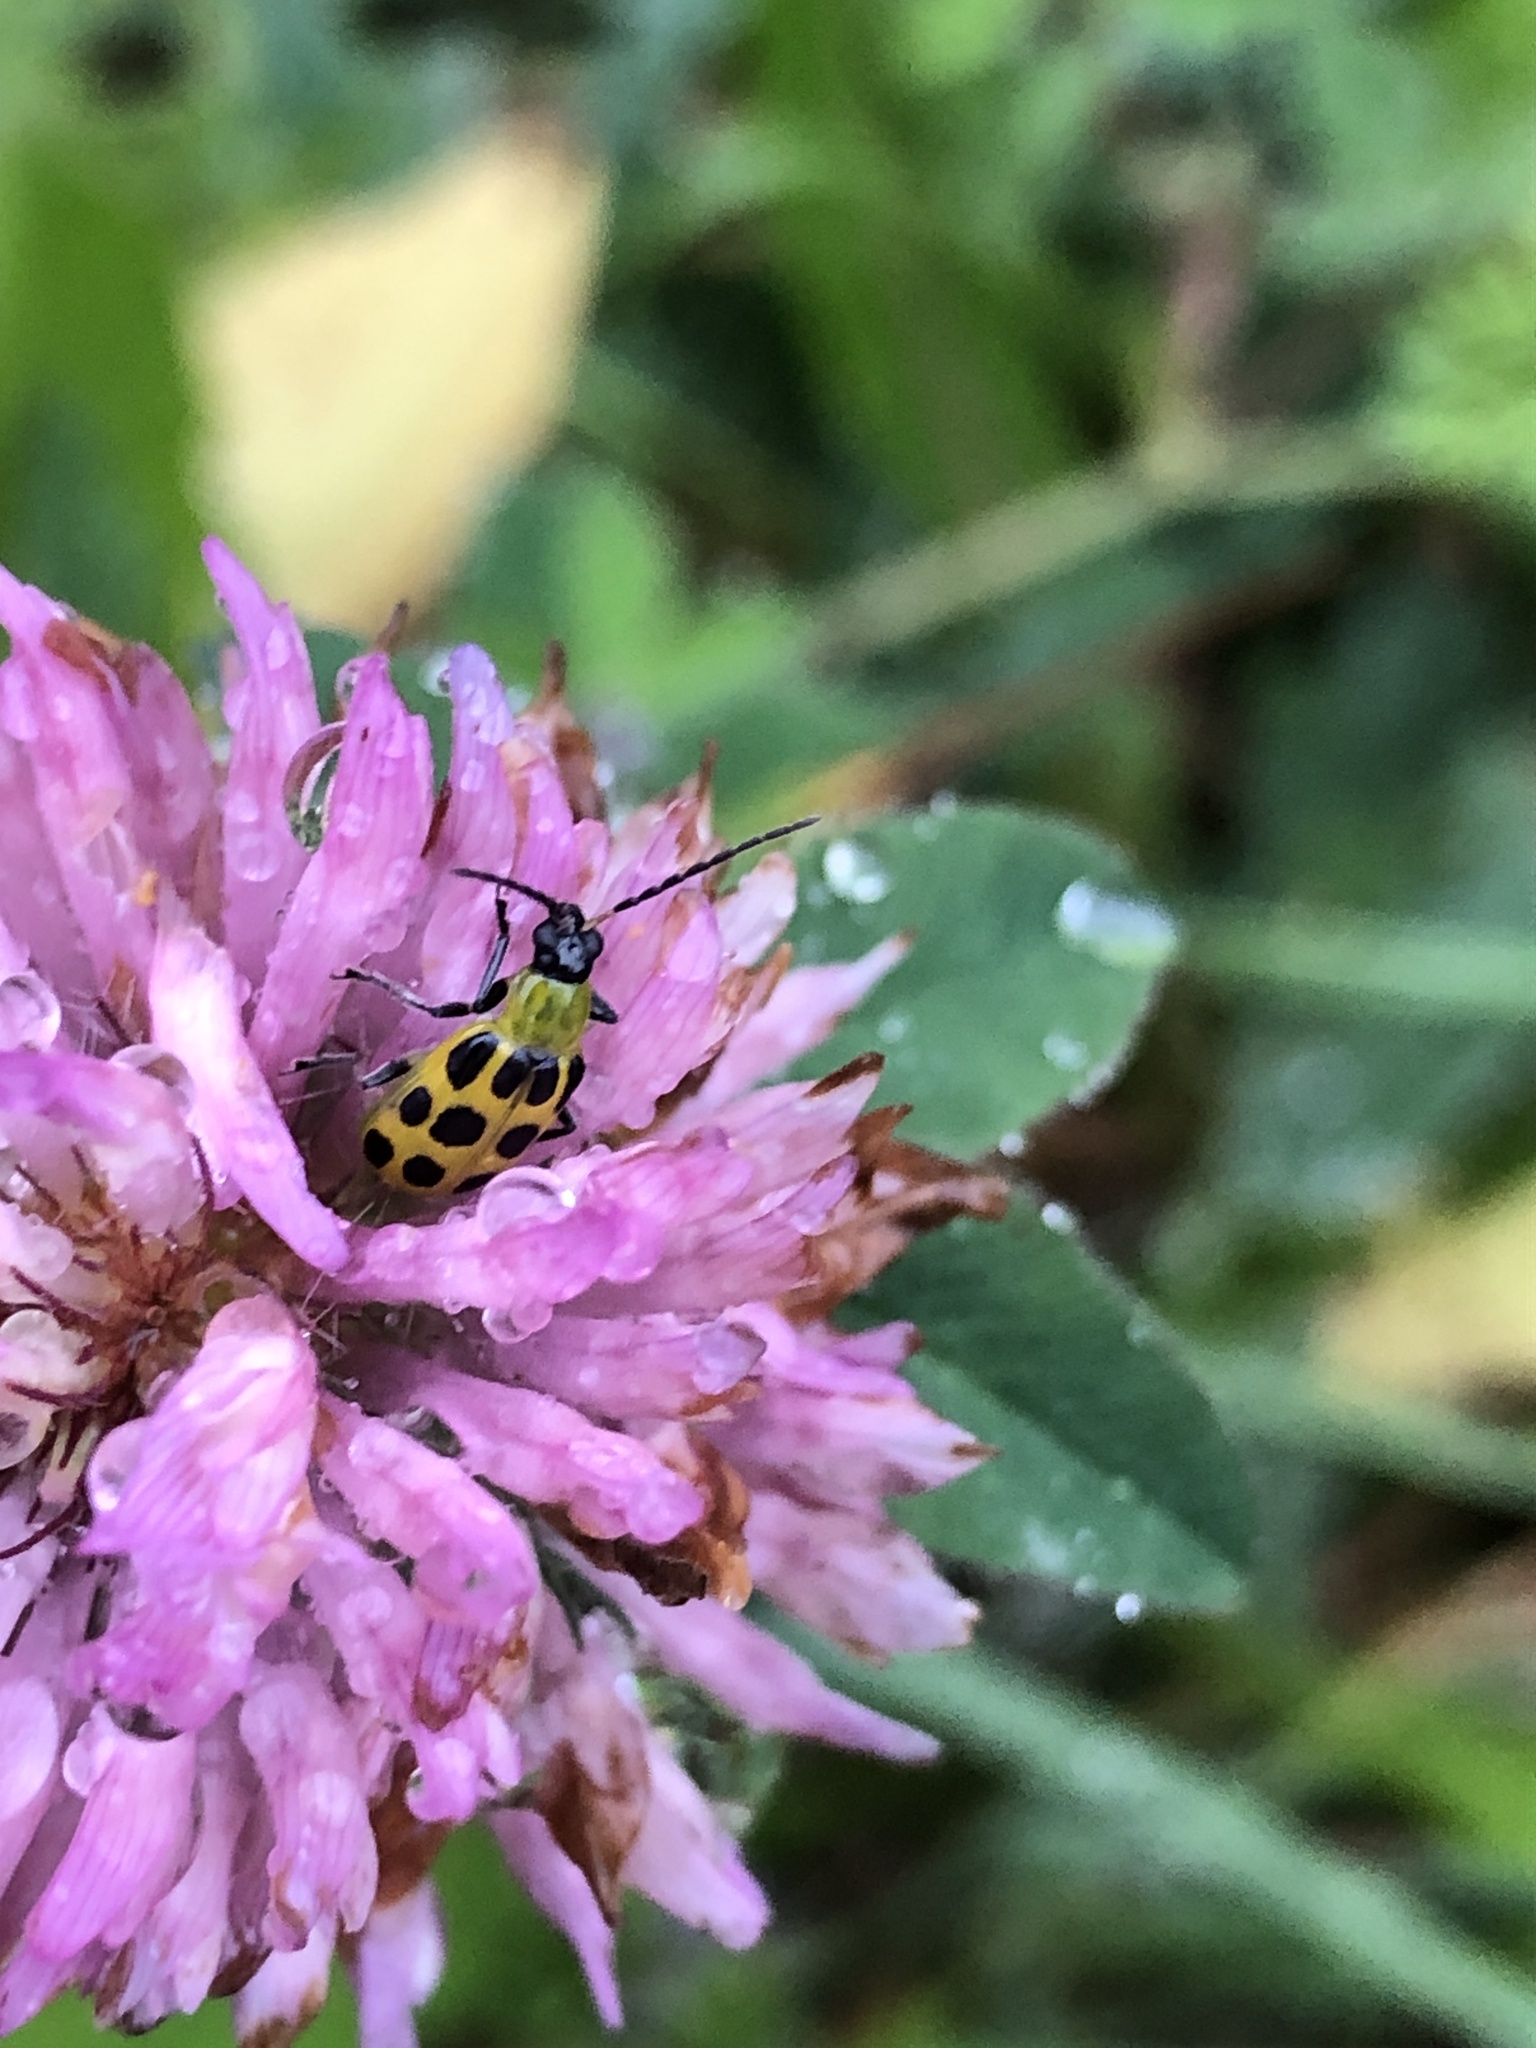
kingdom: Animalia
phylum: Arthropoda
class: Insecta
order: Coleoptera
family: Chrysomelidae
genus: Diabrotica
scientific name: Diabrotica undecimpunctata
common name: Spotted cucumber beetle
